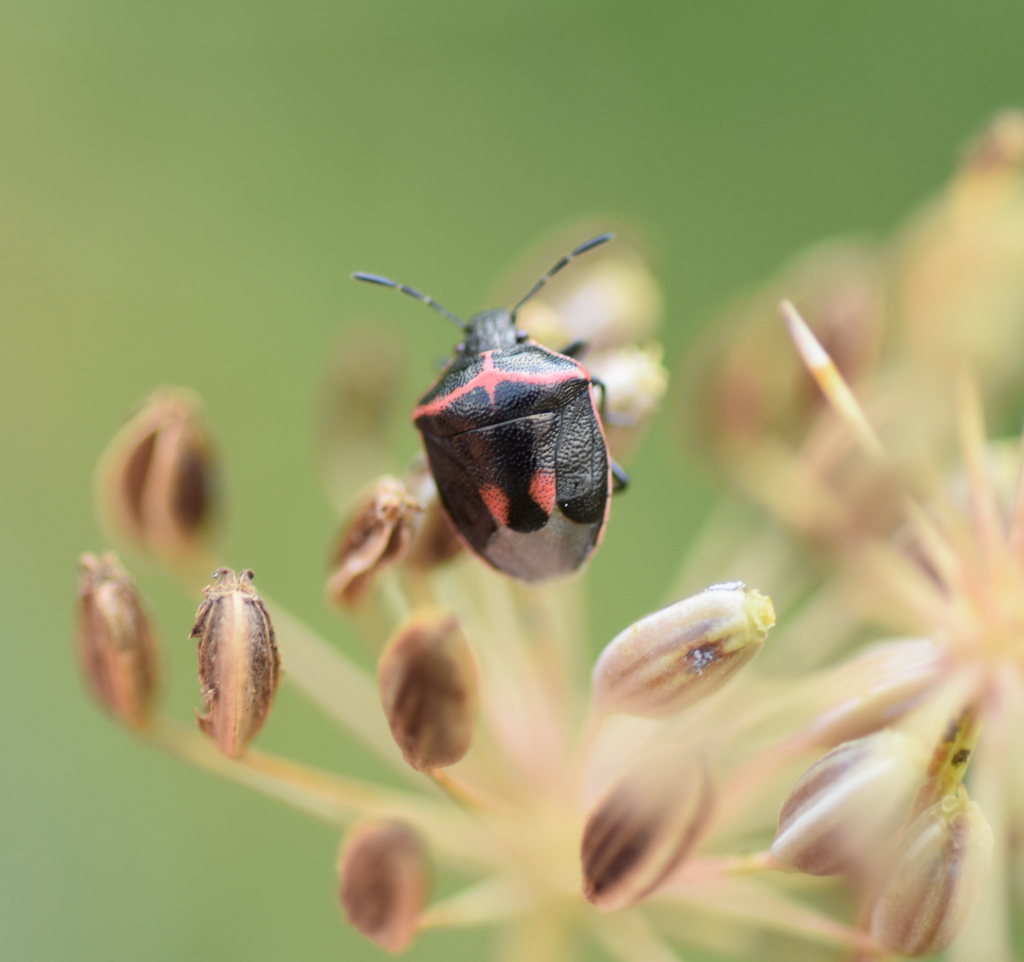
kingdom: Animalia
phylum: Arthropoda
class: Insecta
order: Hemiptera
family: Pentatomidae
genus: Cosmopepla
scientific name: Cosmopepla lintneriana
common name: Twice-stabbed stink bug
